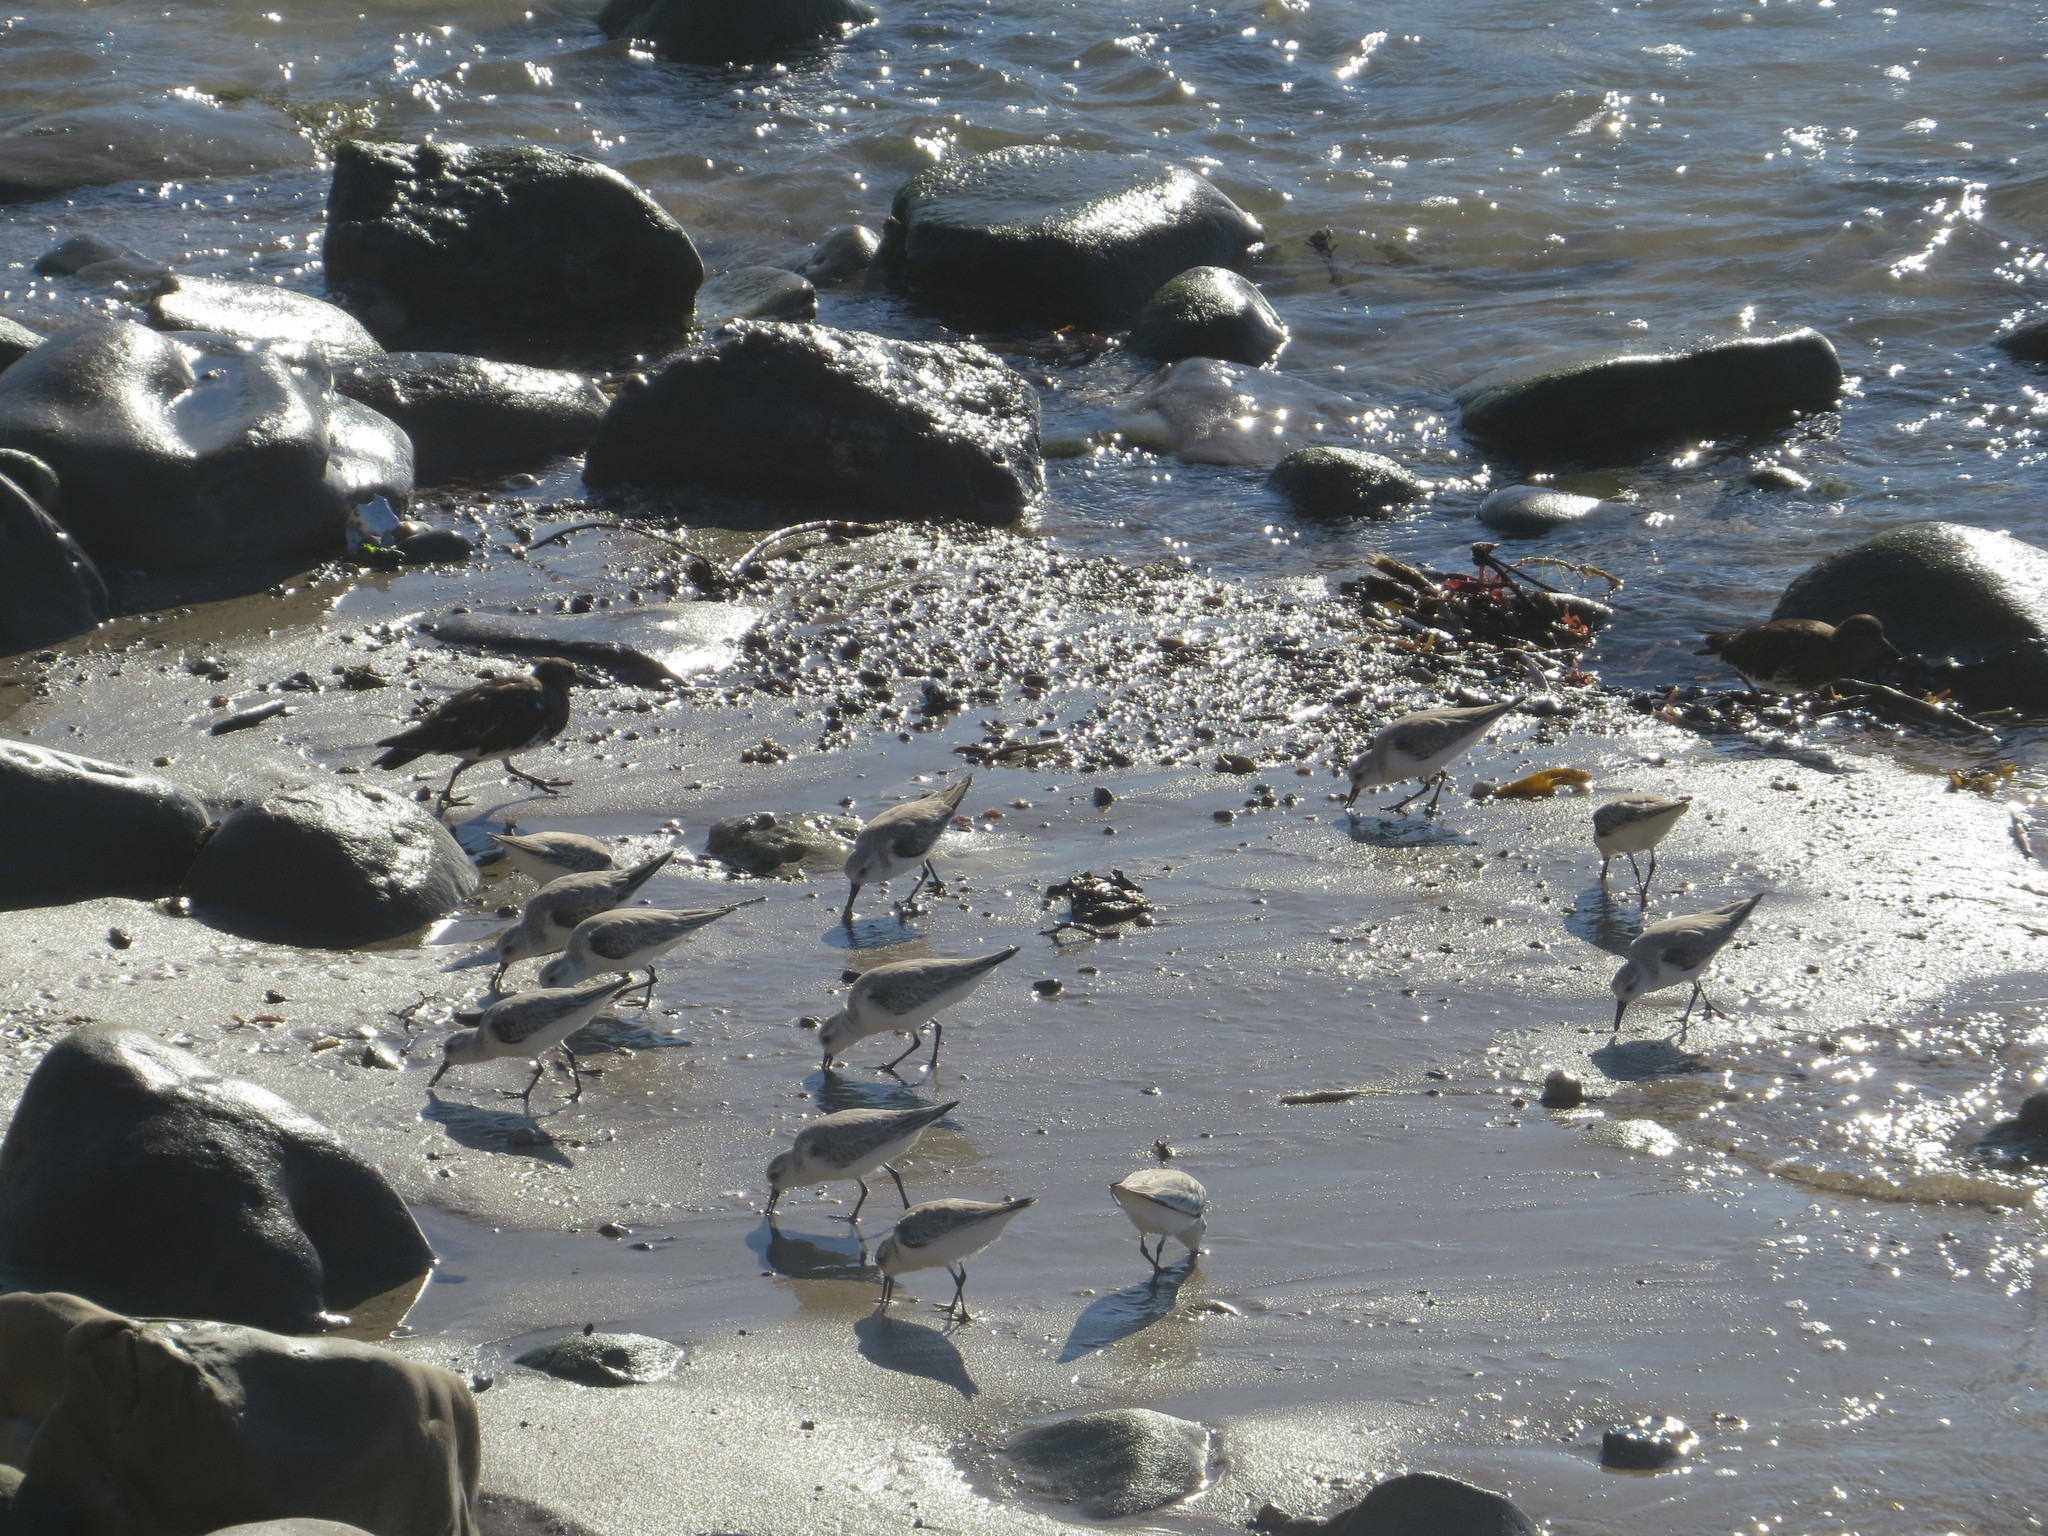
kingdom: Animalia
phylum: Chordata
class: Aves
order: Charadriiformes
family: Scolopacidae
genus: Arenaria
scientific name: Arenaria melanocephala
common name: Black turnstone
